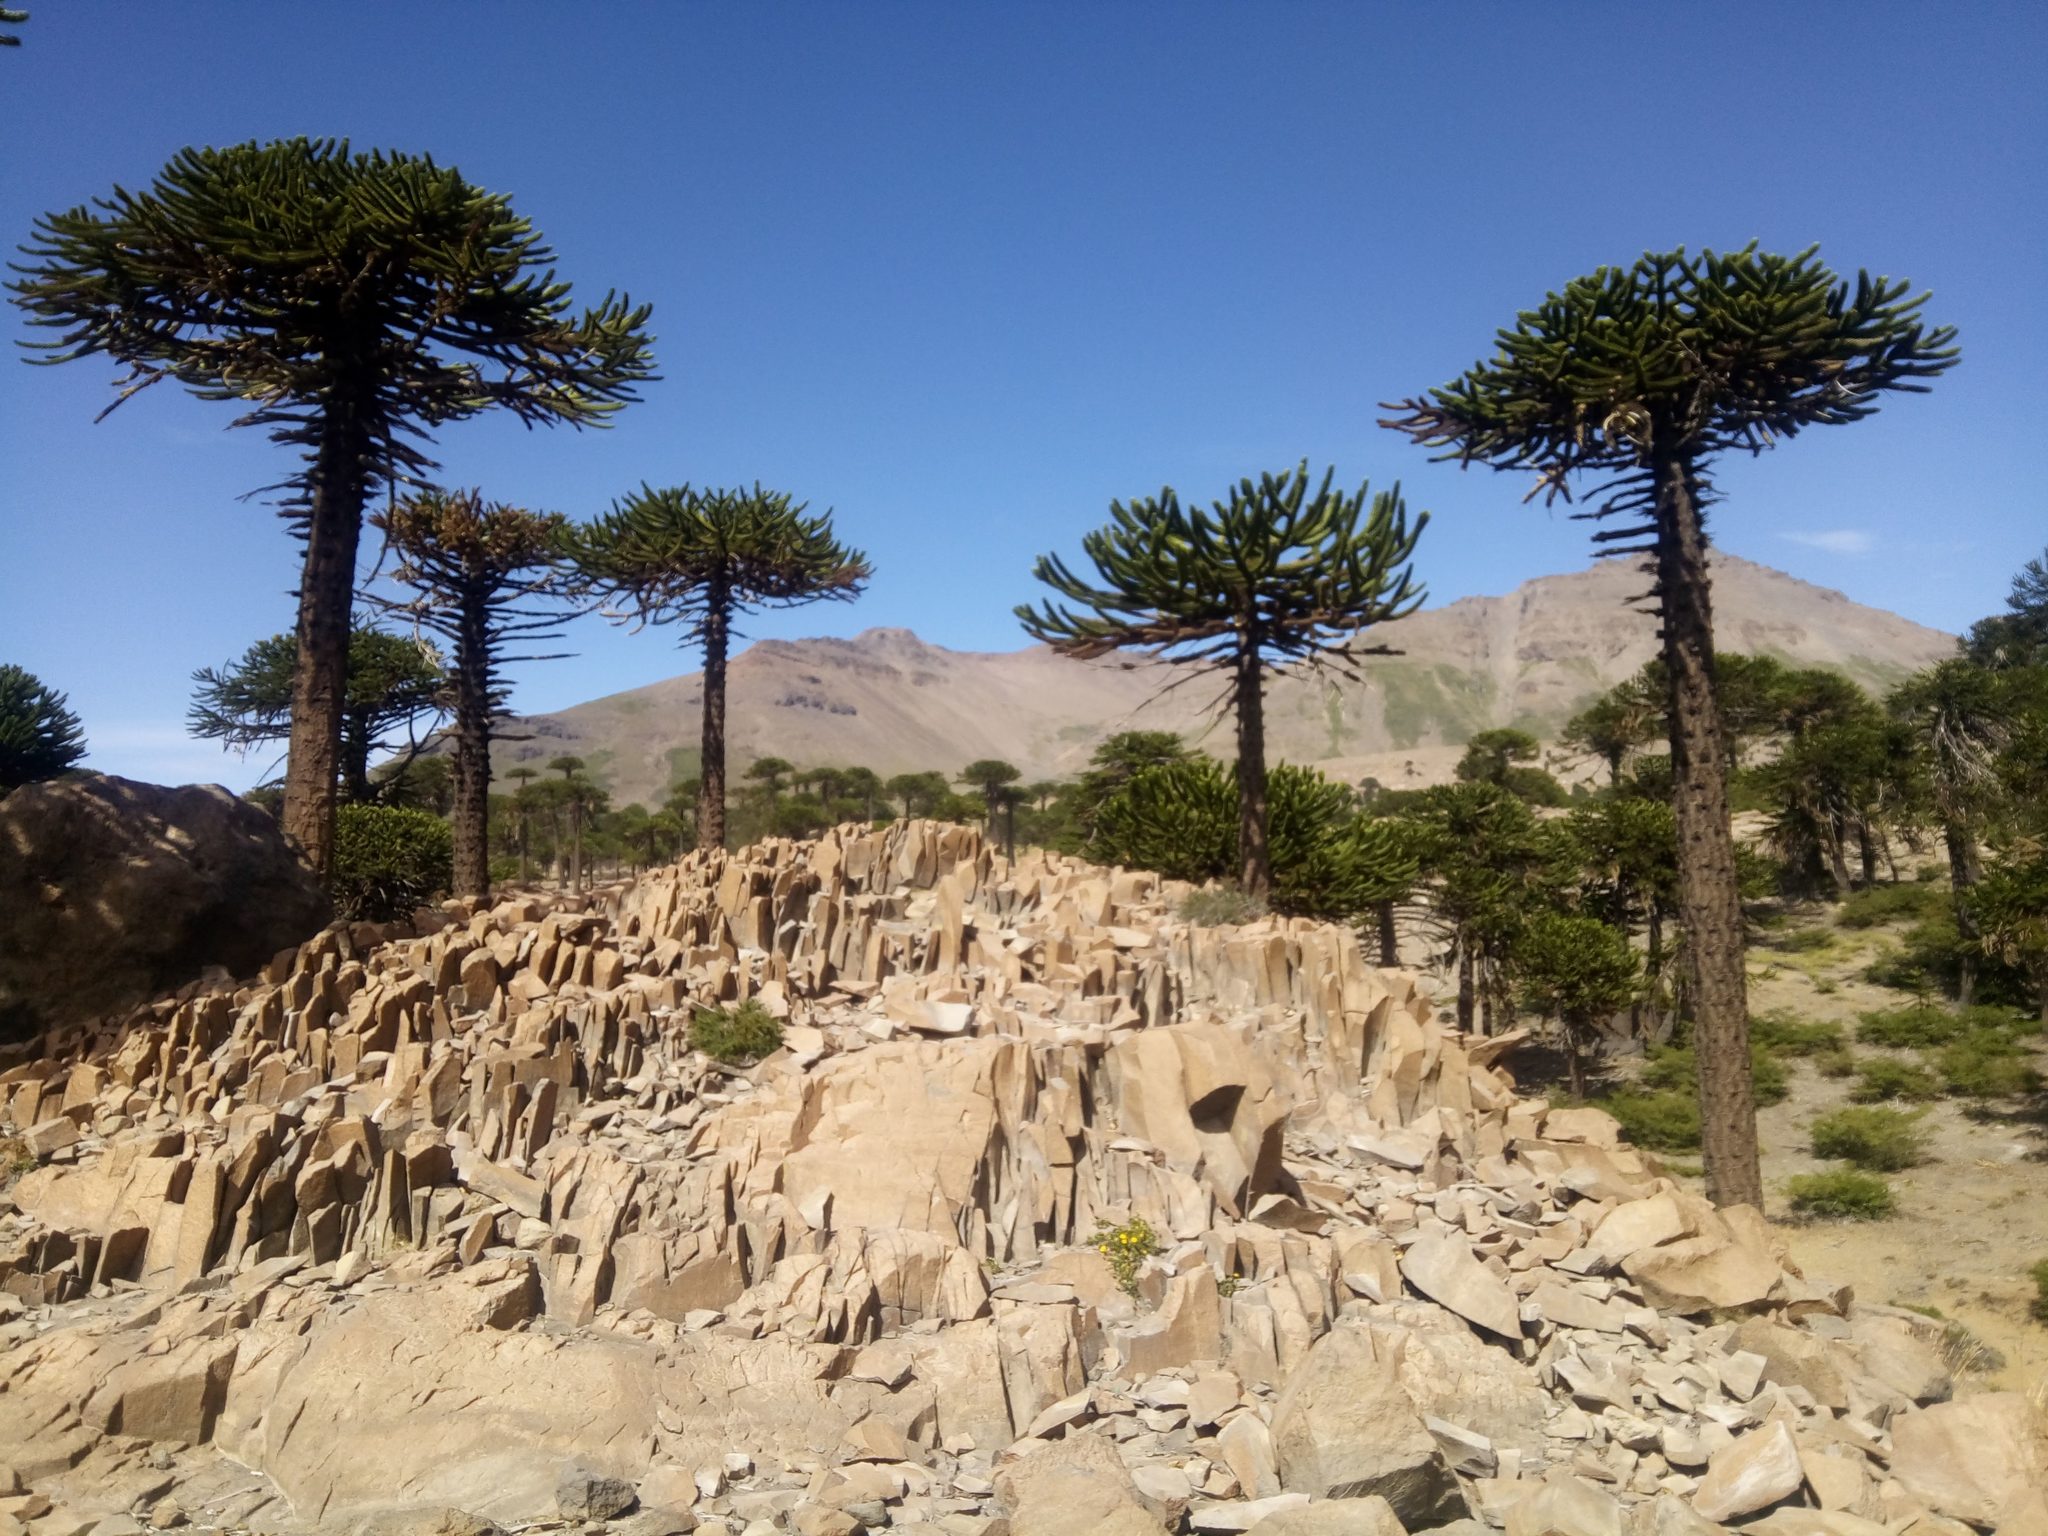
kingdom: Plantae
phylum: Tracheophyta
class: Pinopsida
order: Pinales
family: Araucariaceae
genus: Araucaria
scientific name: Araucaria araucana
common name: Monkey-puzzle
